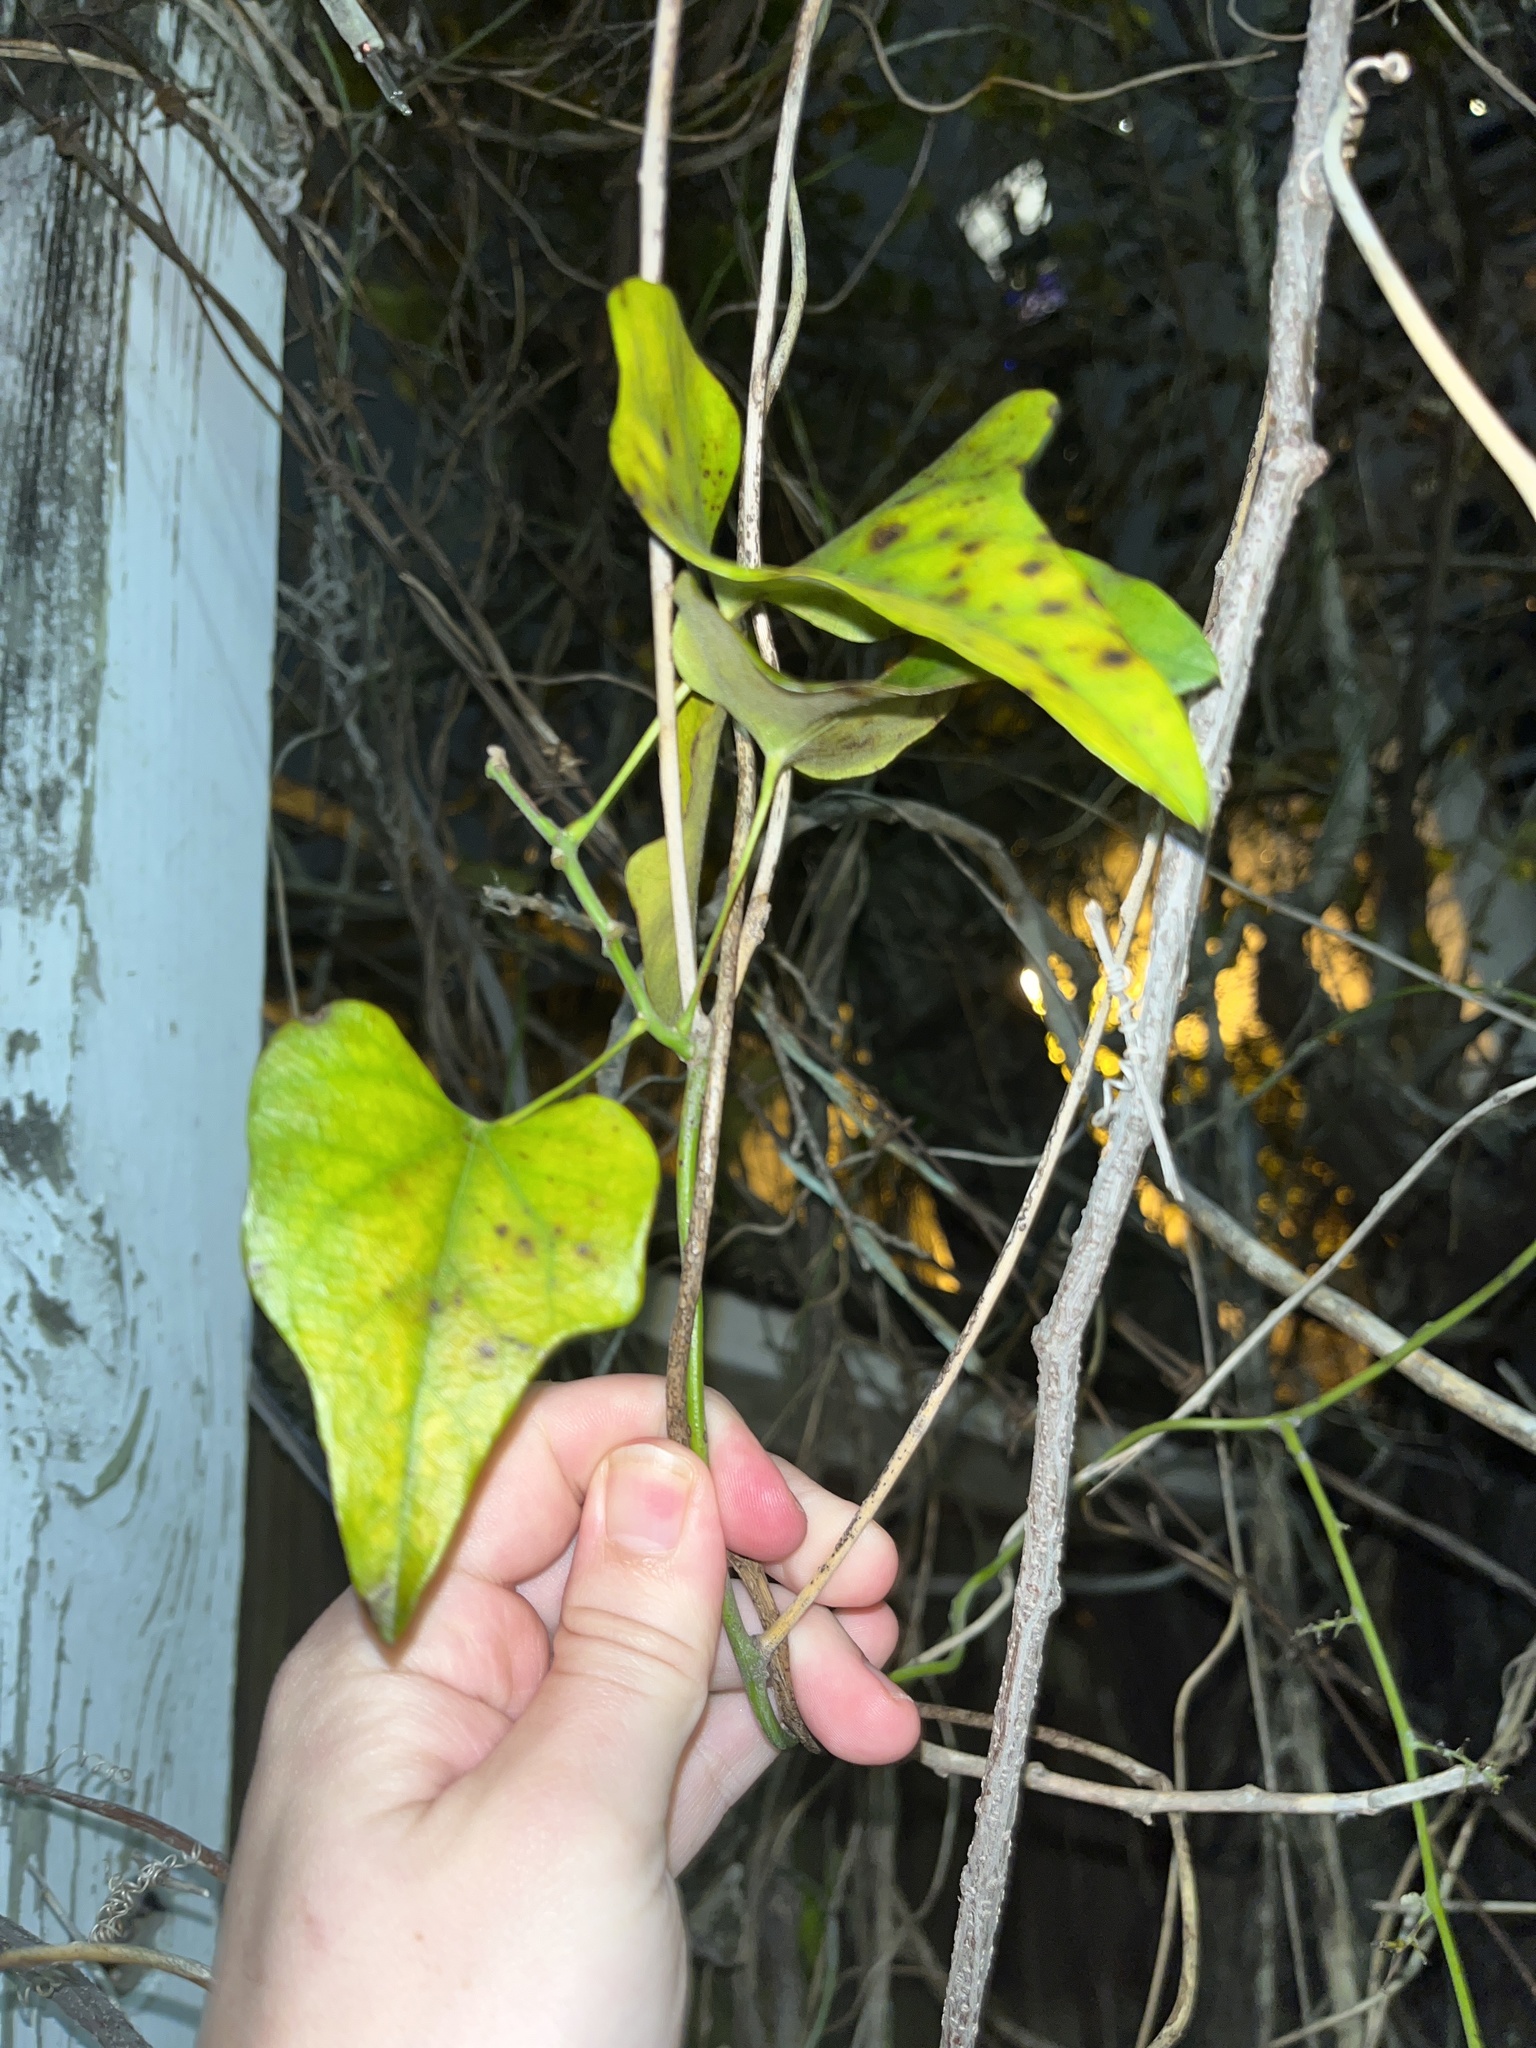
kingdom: Plantae
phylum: Tracheophyta
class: Magnoliopsida
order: Ranunculales
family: Menispermaceae
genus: Cocculus
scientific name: Cocculus carolinus
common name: Carolina moonseed
